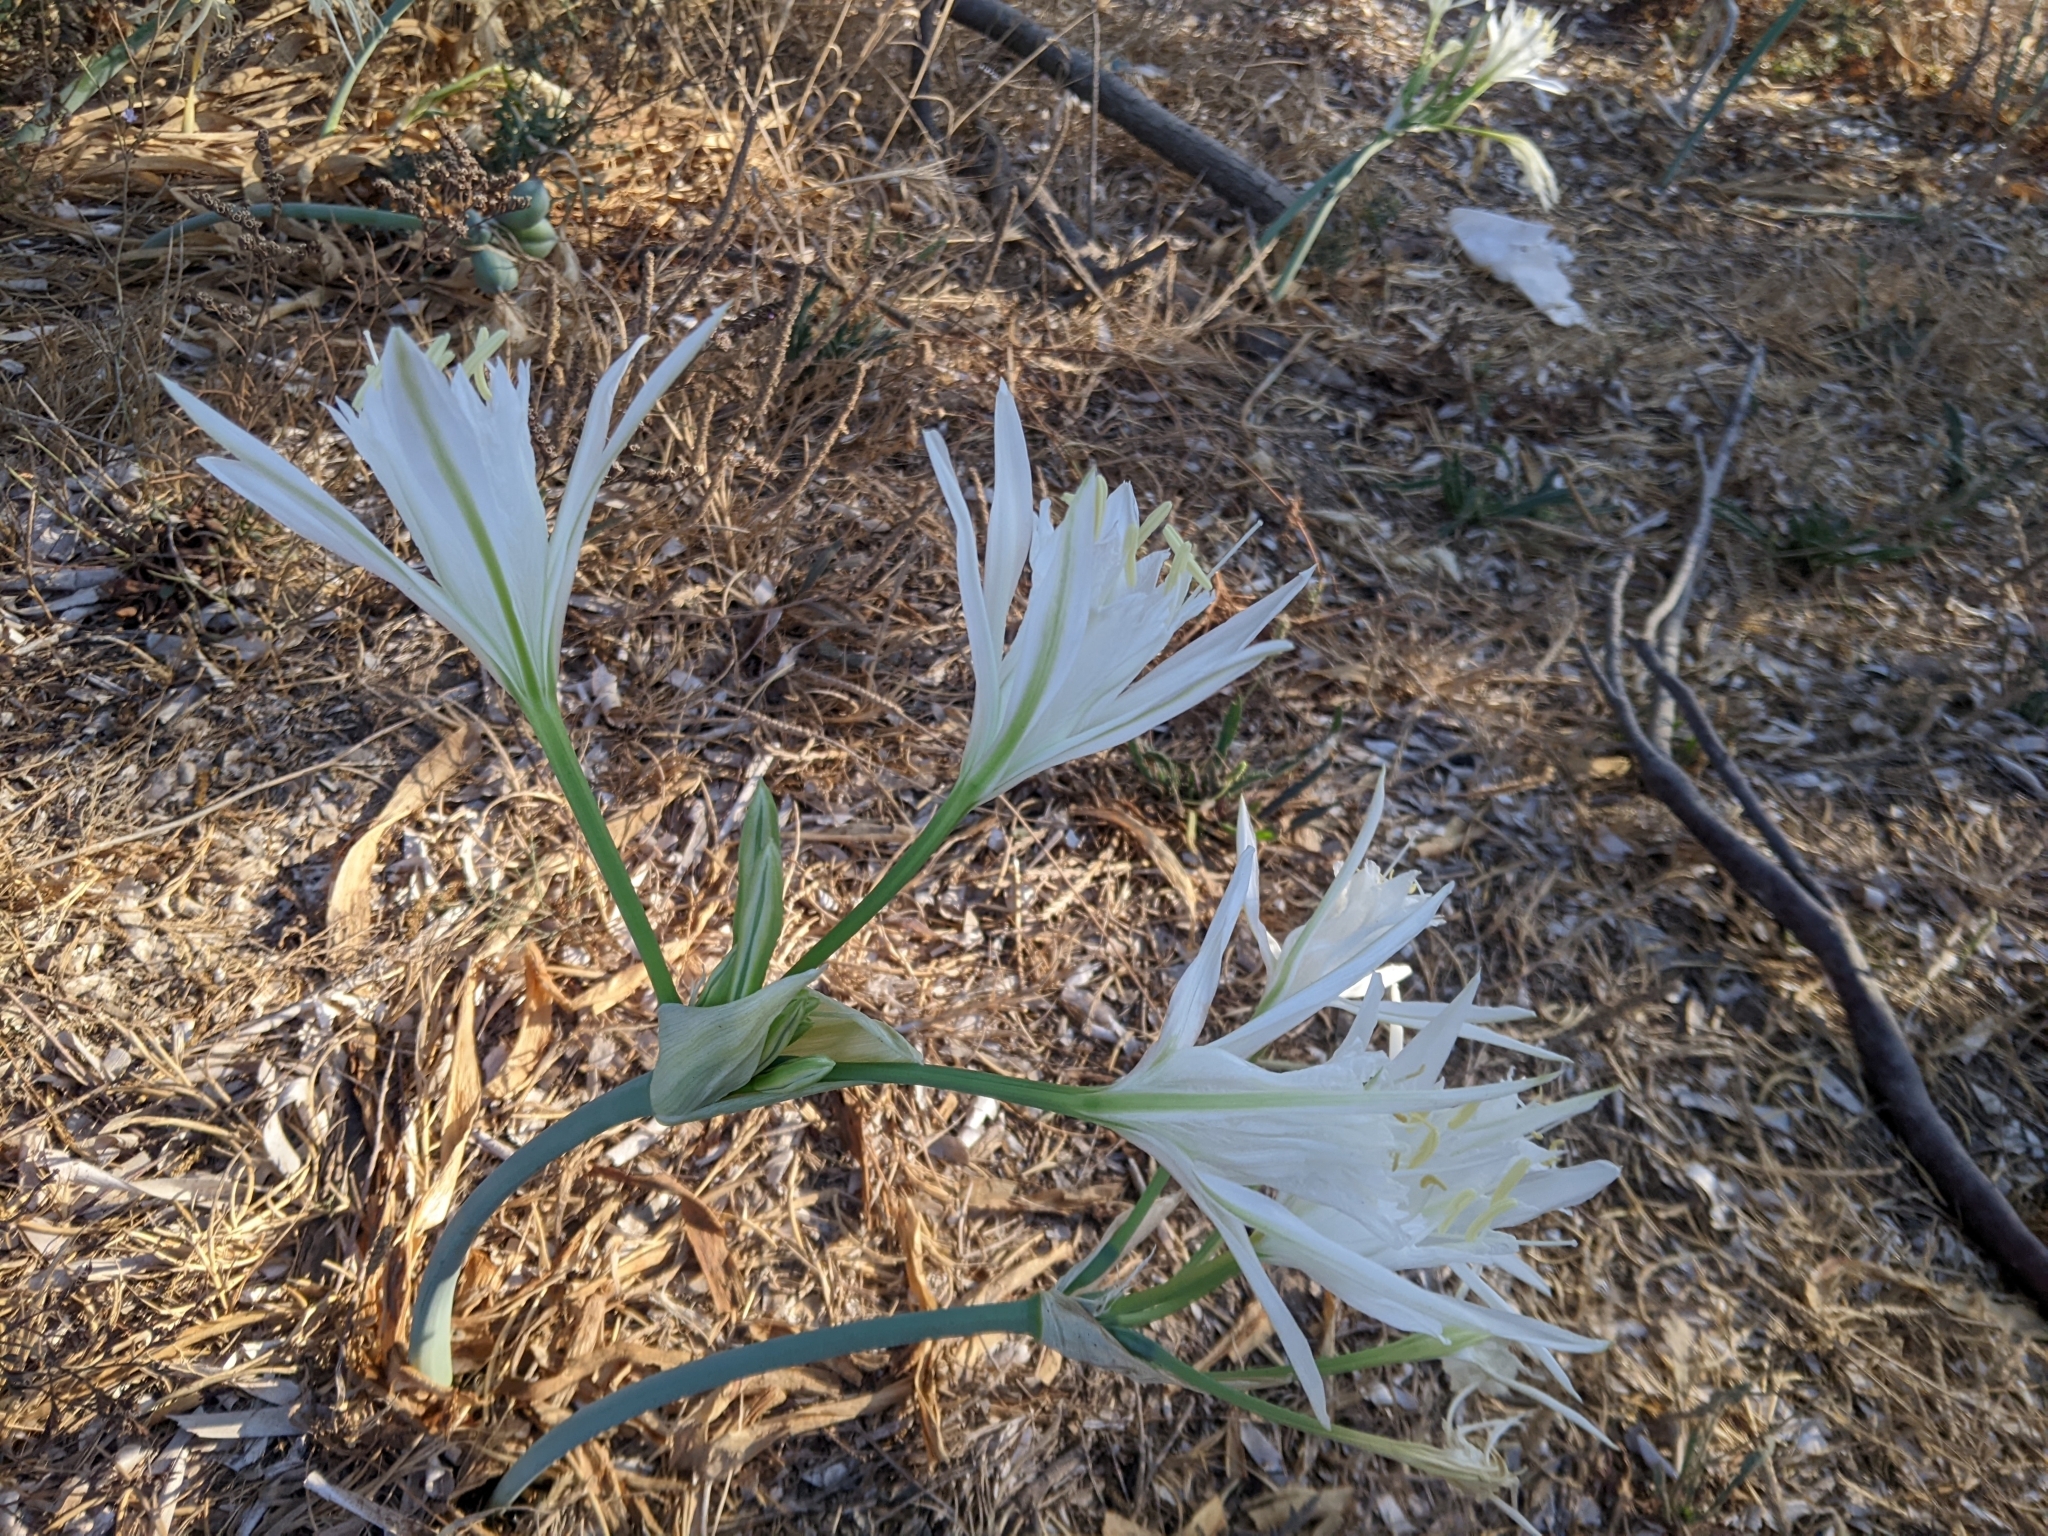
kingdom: Plantae
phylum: Tracheophyta
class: Liliopsida
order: Asparagales
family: Amaryllidaceae
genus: Pancratium
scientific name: Pancratium maritimum
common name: Sea-daffodil
